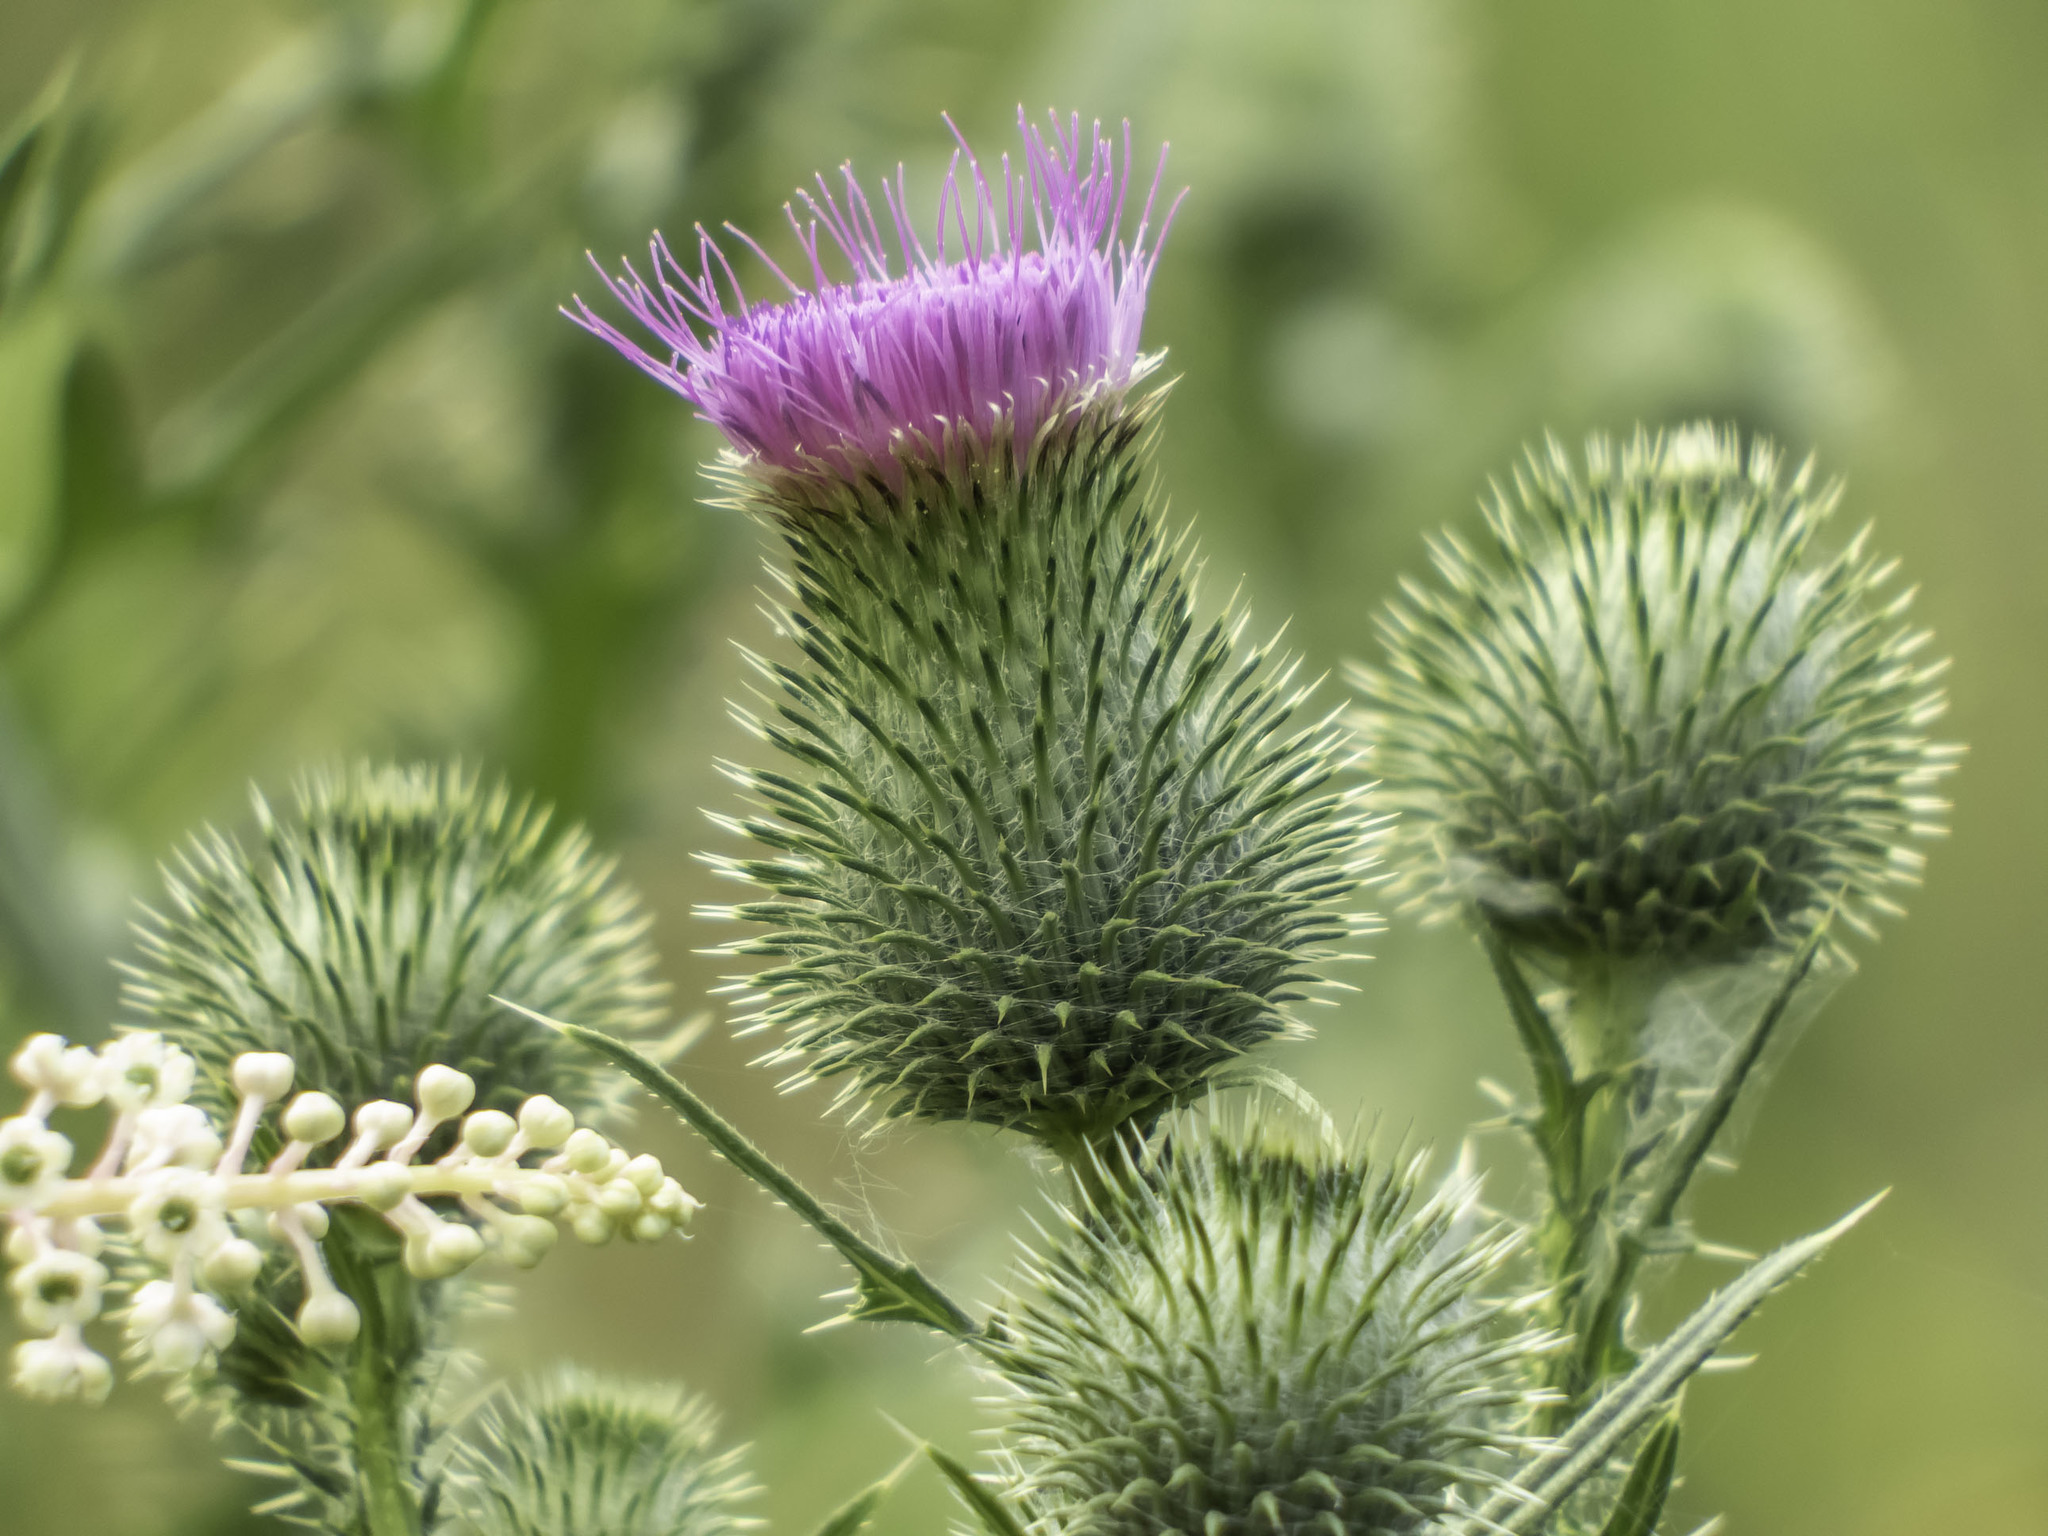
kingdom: Plantae
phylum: Tracheophyta
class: Magnoliopsida
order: Asterales
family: Asteraceae
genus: Cirsium
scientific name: Cirsium vulgare
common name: Bull thistle
